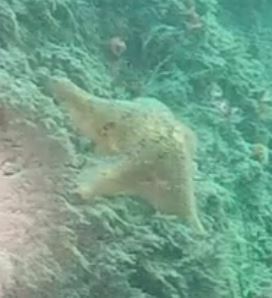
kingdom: Animalia
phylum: Echinodermata
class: Asteroidea
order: Valvatida
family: Asterinidae
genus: Patiria
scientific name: Patiria miniata
